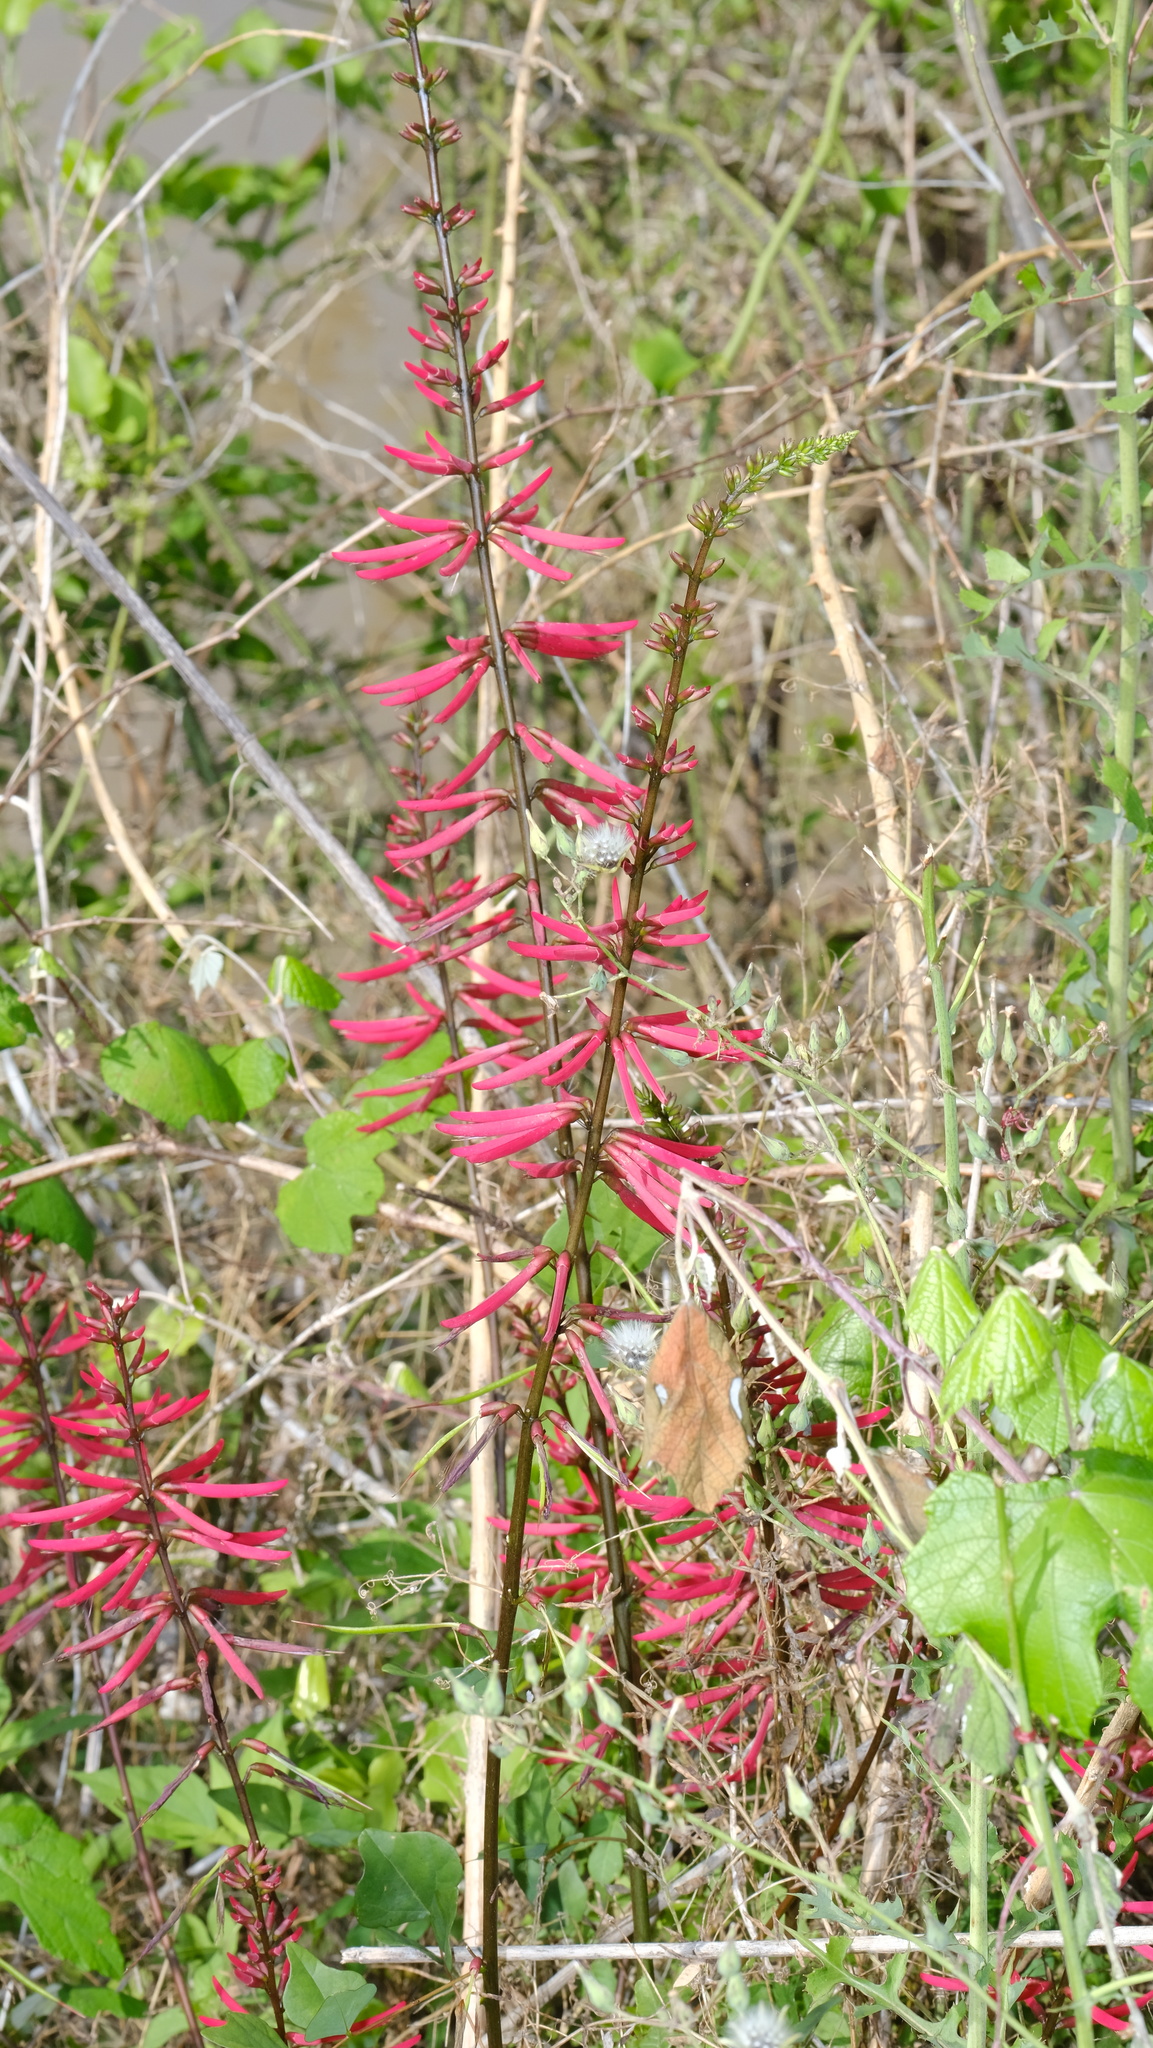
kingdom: Plantae
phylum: Tracheophyta
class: Magnoliopsida
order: Fabales
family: Fabaceae
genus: Erythrina
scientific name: Erythrina herbacea
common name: Coral-bean
